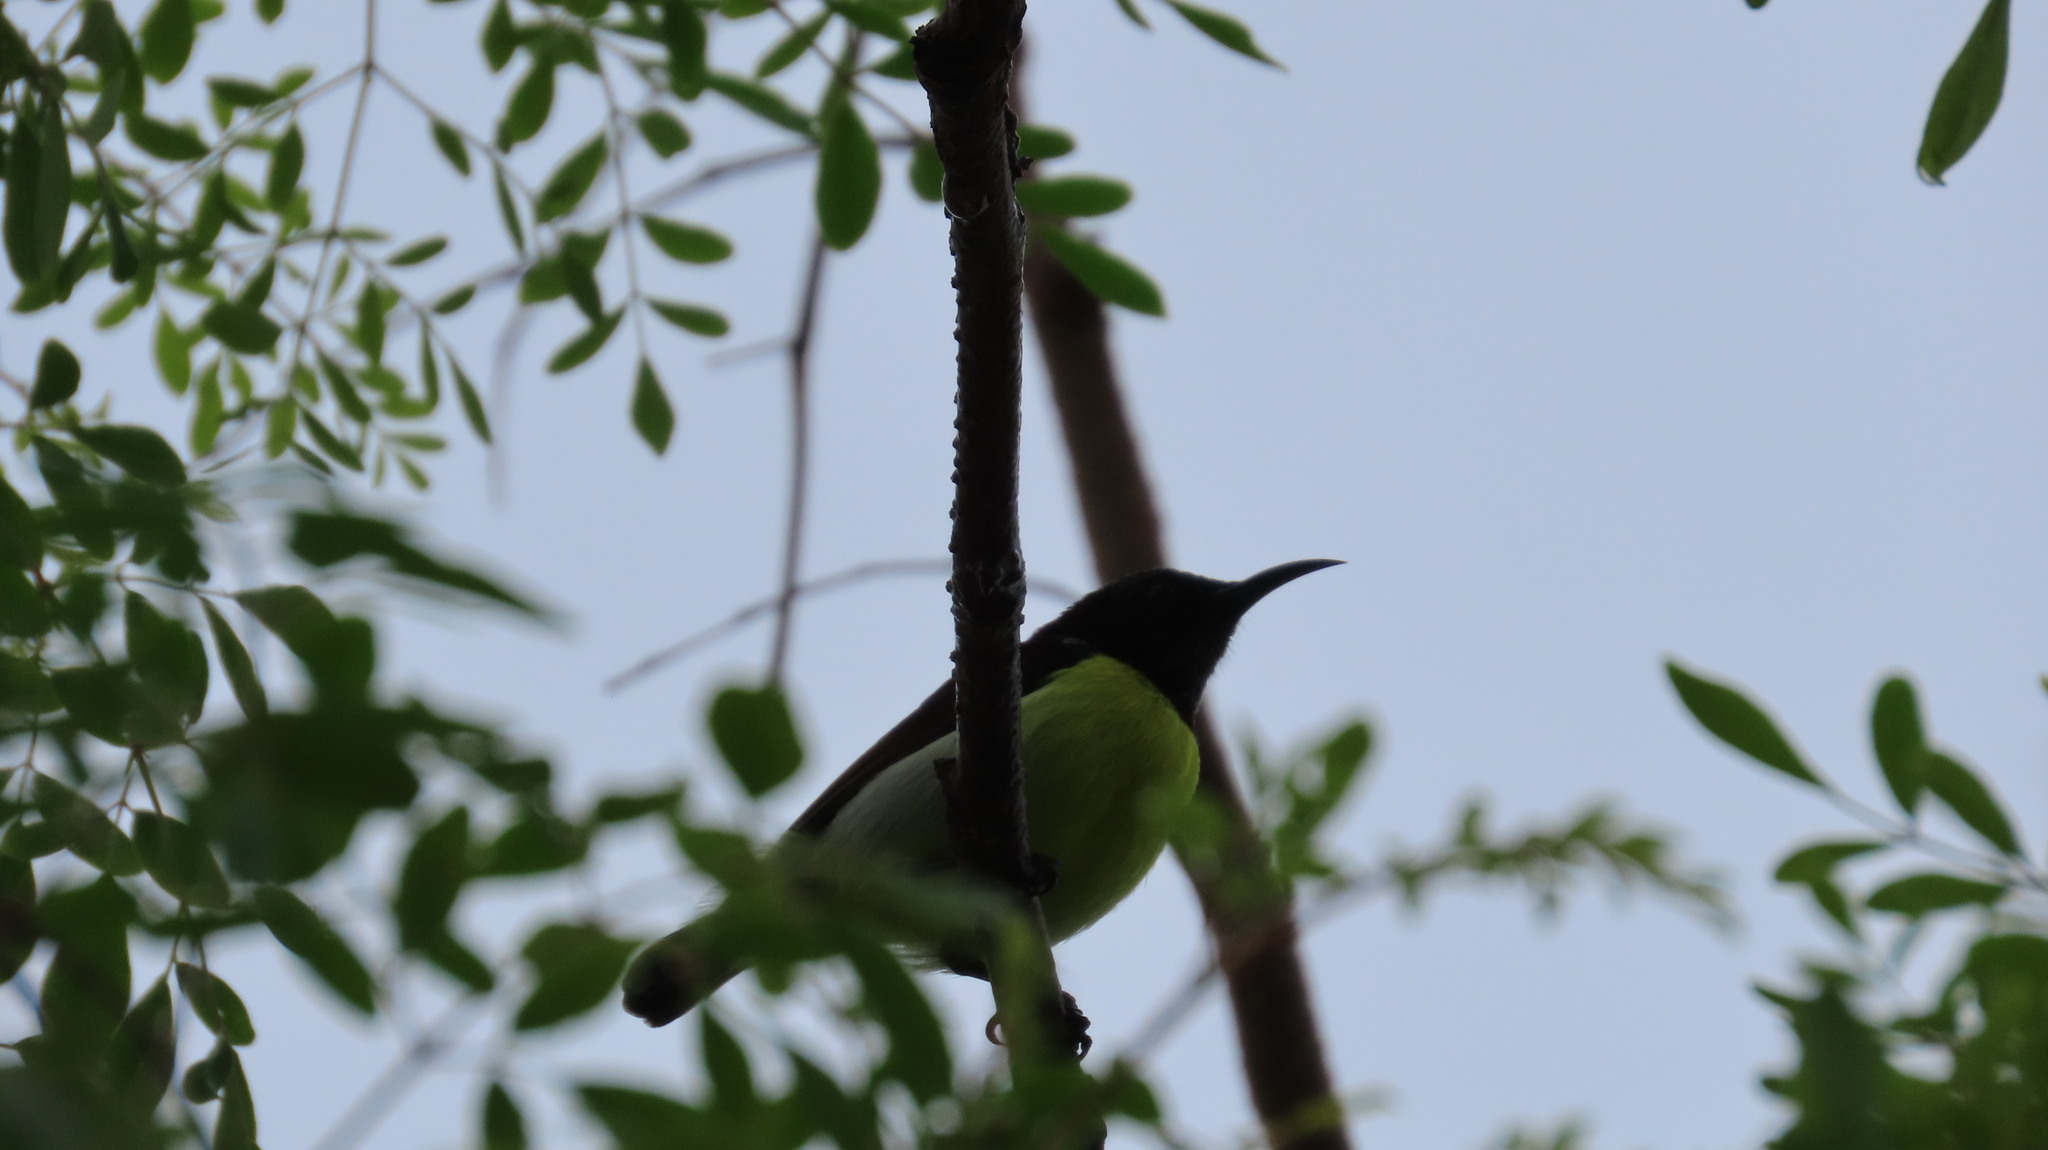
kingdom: Animalia
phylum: Chordata
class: Aves
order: Passeriformes
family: Nectariniidae
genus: Leptocoma
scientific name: Leptocoma zeylonica
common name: Purple-rumped sunbird
